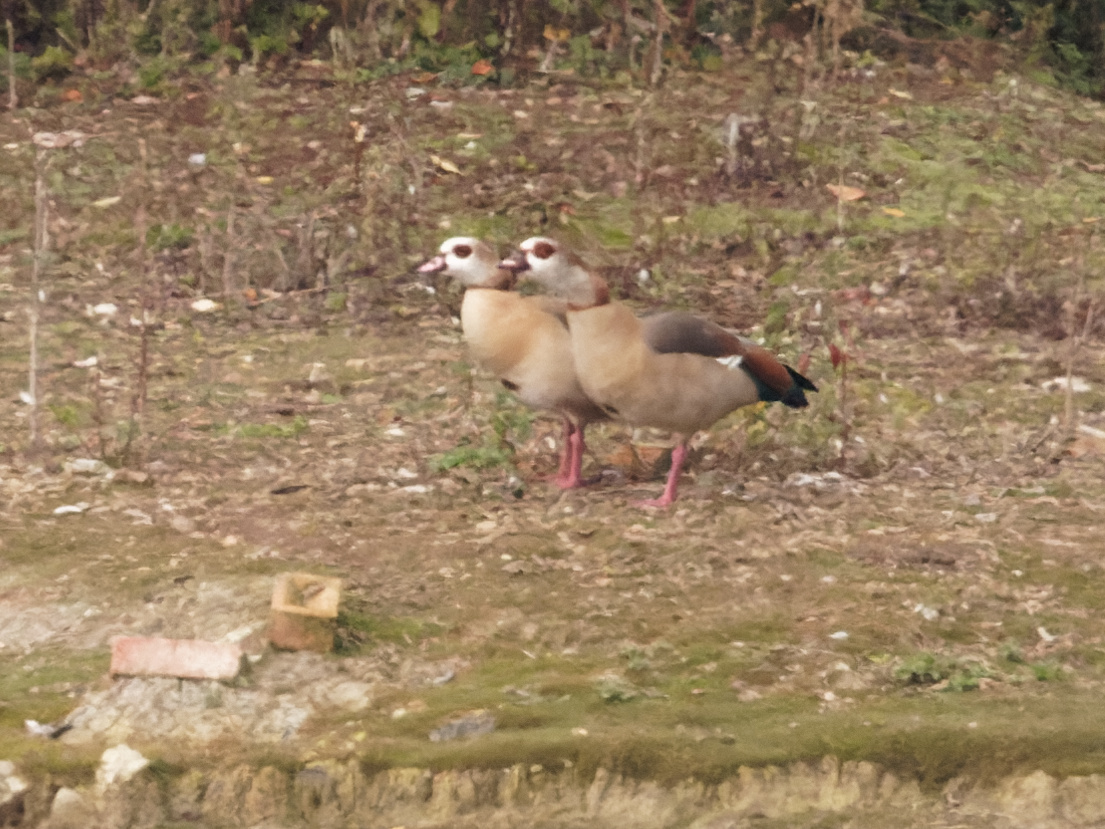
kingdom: Animalia
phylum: Chordata
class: Aves
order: Anseriformes
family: Anatidae
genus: Alopochen
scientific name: Alopochen aegyptiaca
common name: Egyptian goose
